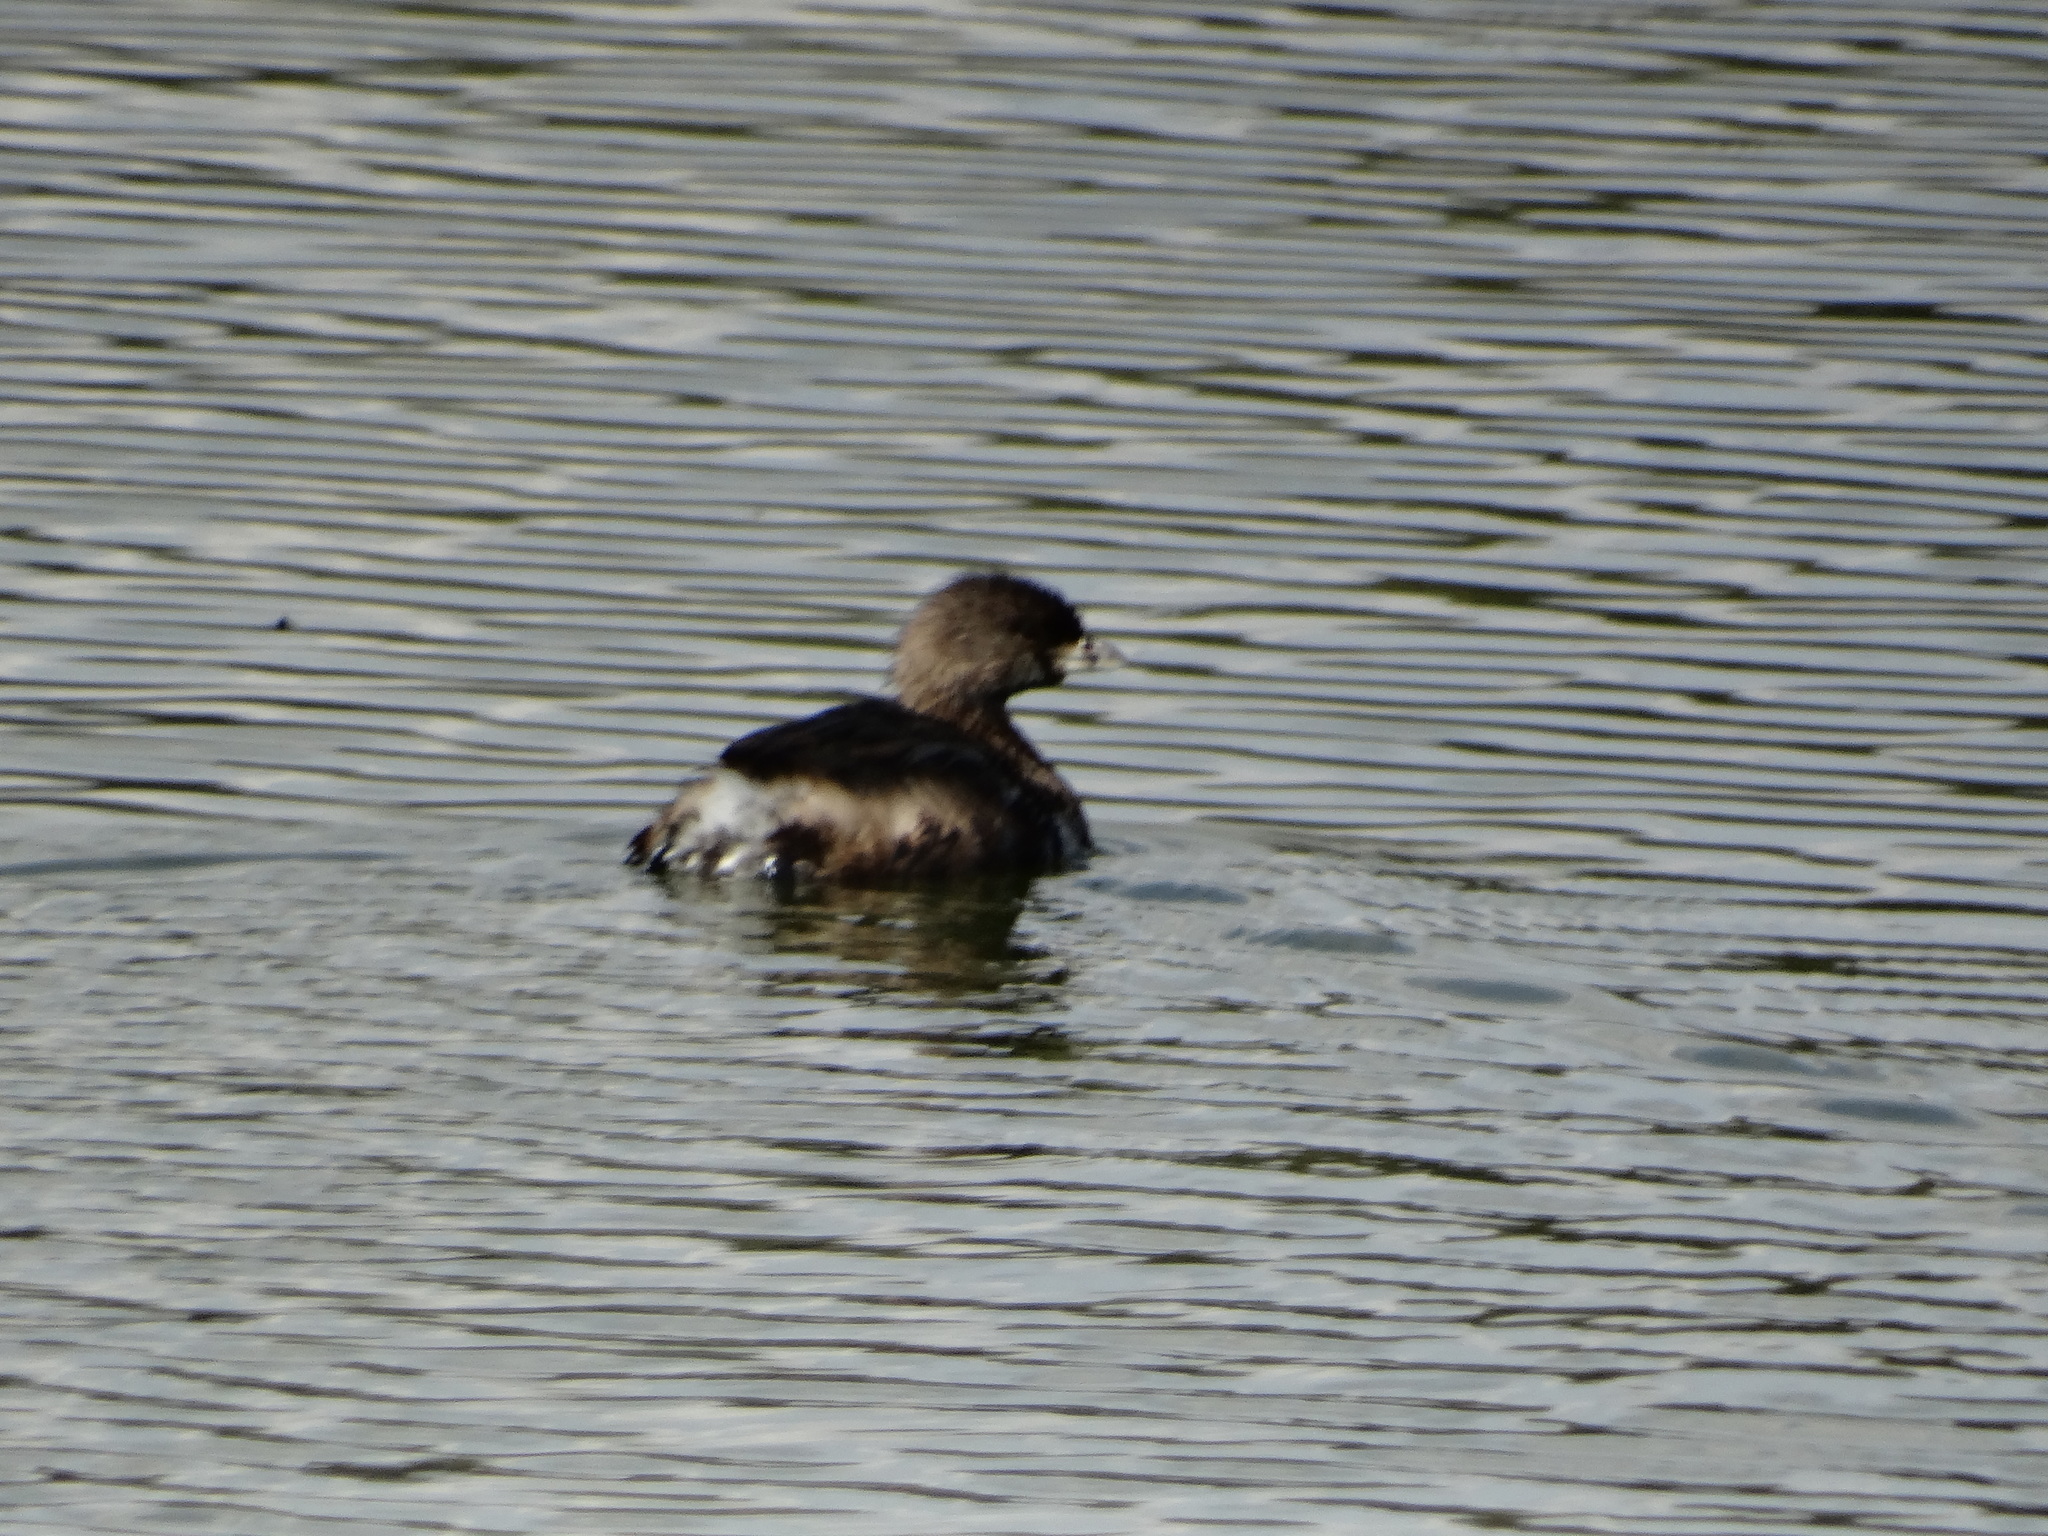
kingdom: Animalia
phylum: Chordata
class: Aves
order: Podicipediformes
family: Podicipedidae
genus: Podilymbus
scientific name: Podilymbus podiceps
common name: Pied-billed grebe
